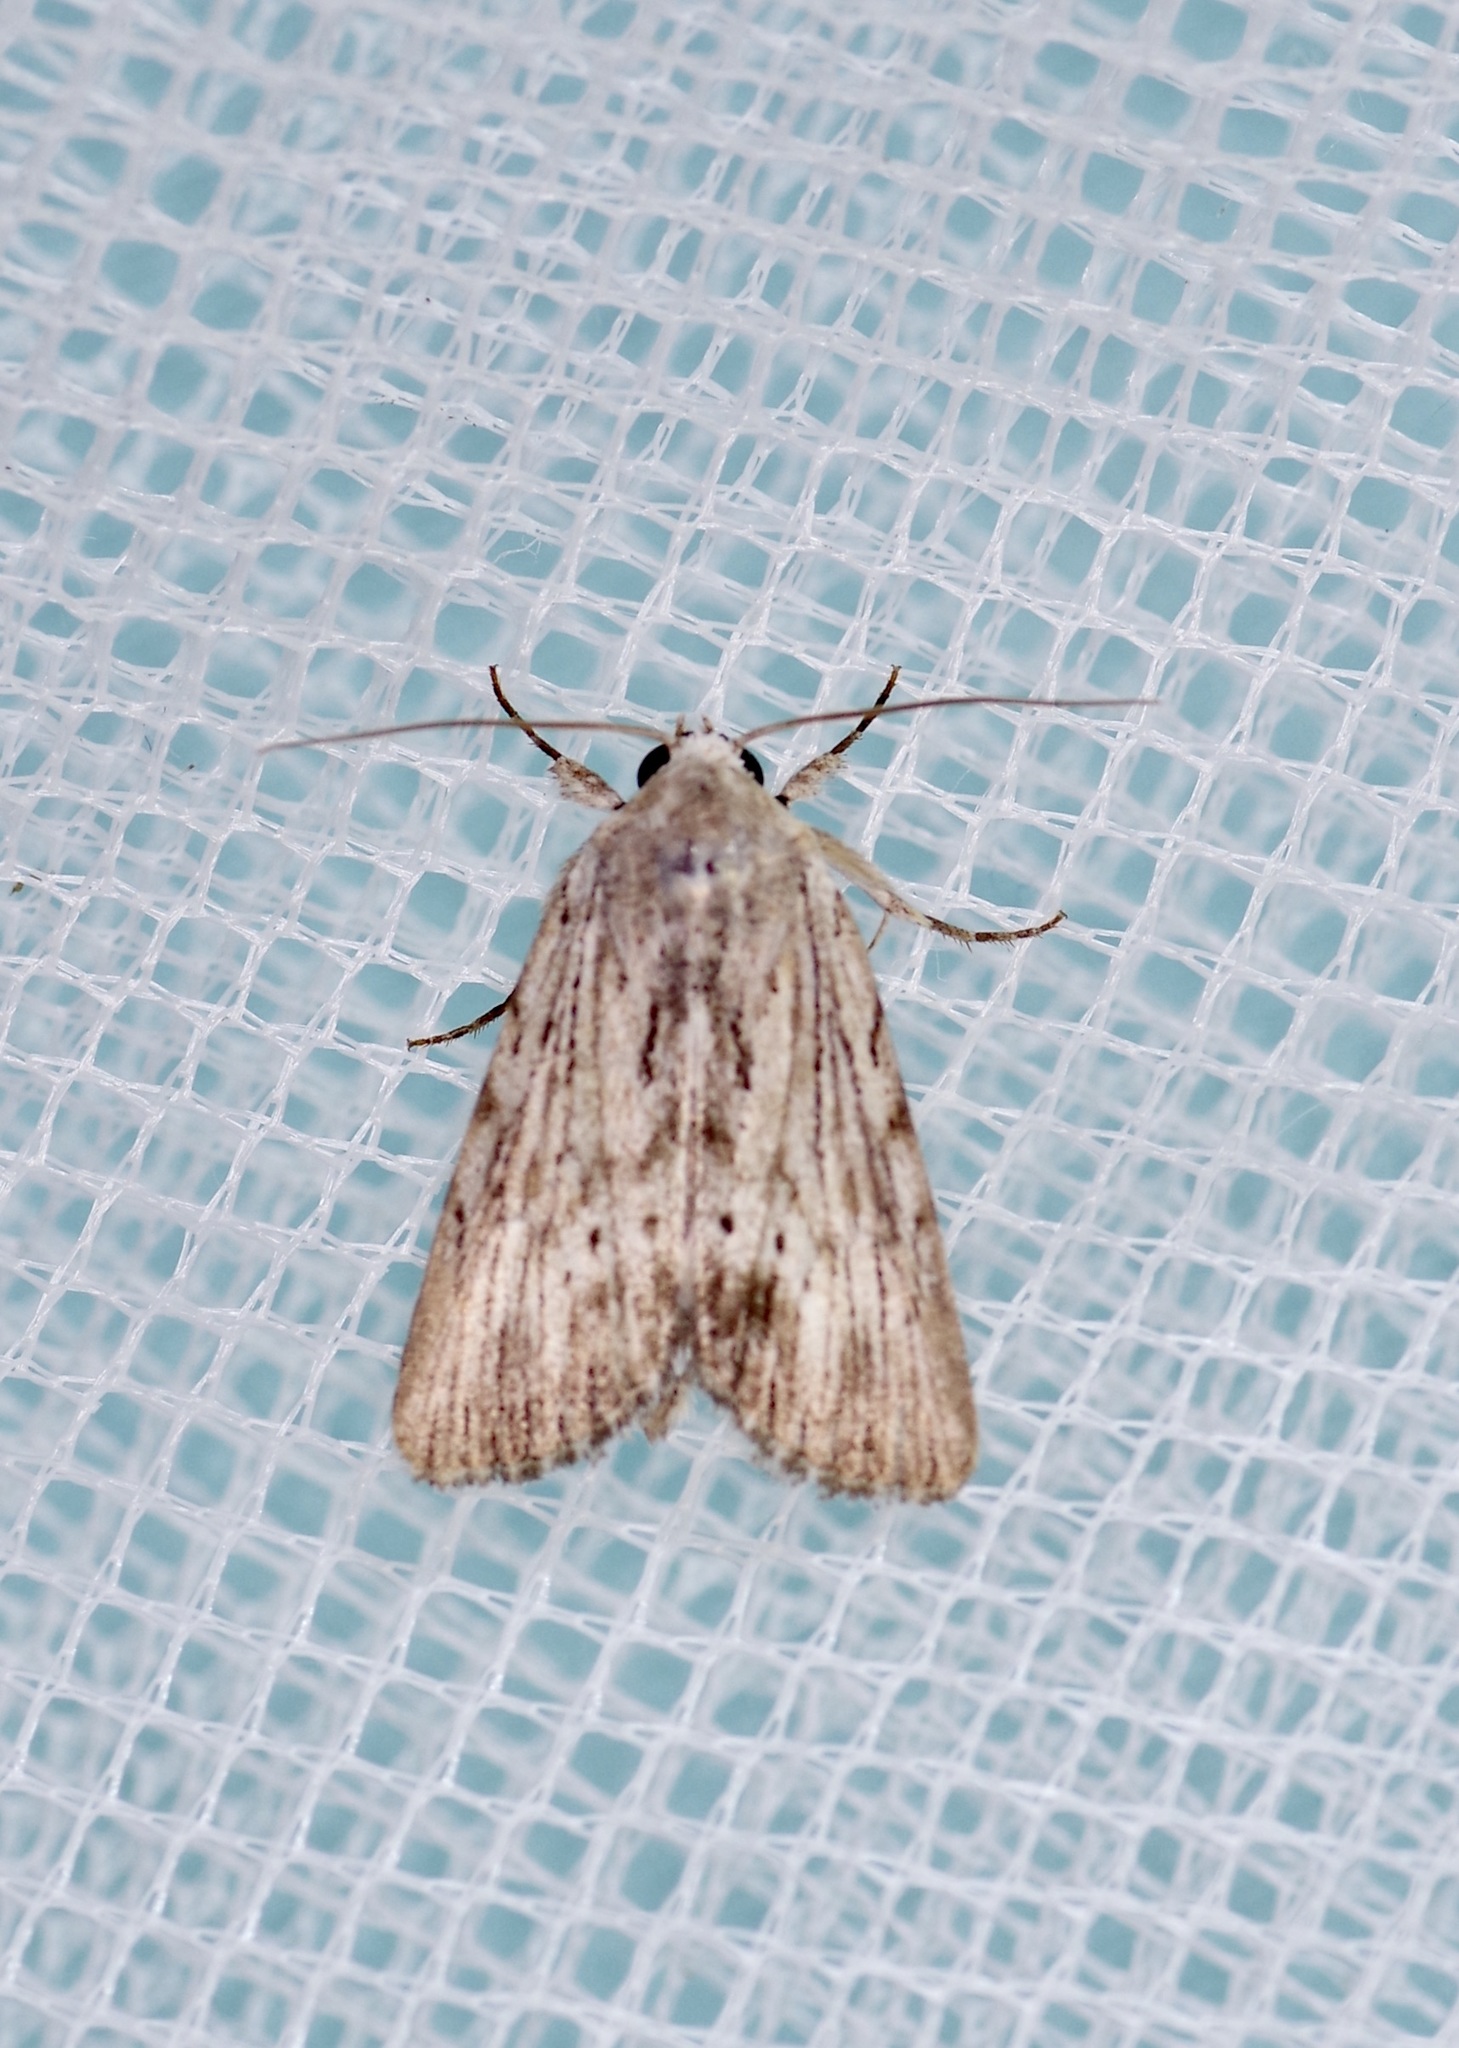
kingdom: Animalia
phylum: Arthropoda
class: Insecta
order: Lepidoptera
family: Noctuidae
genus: Catabenoides
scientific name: Catabenoides terminellus
